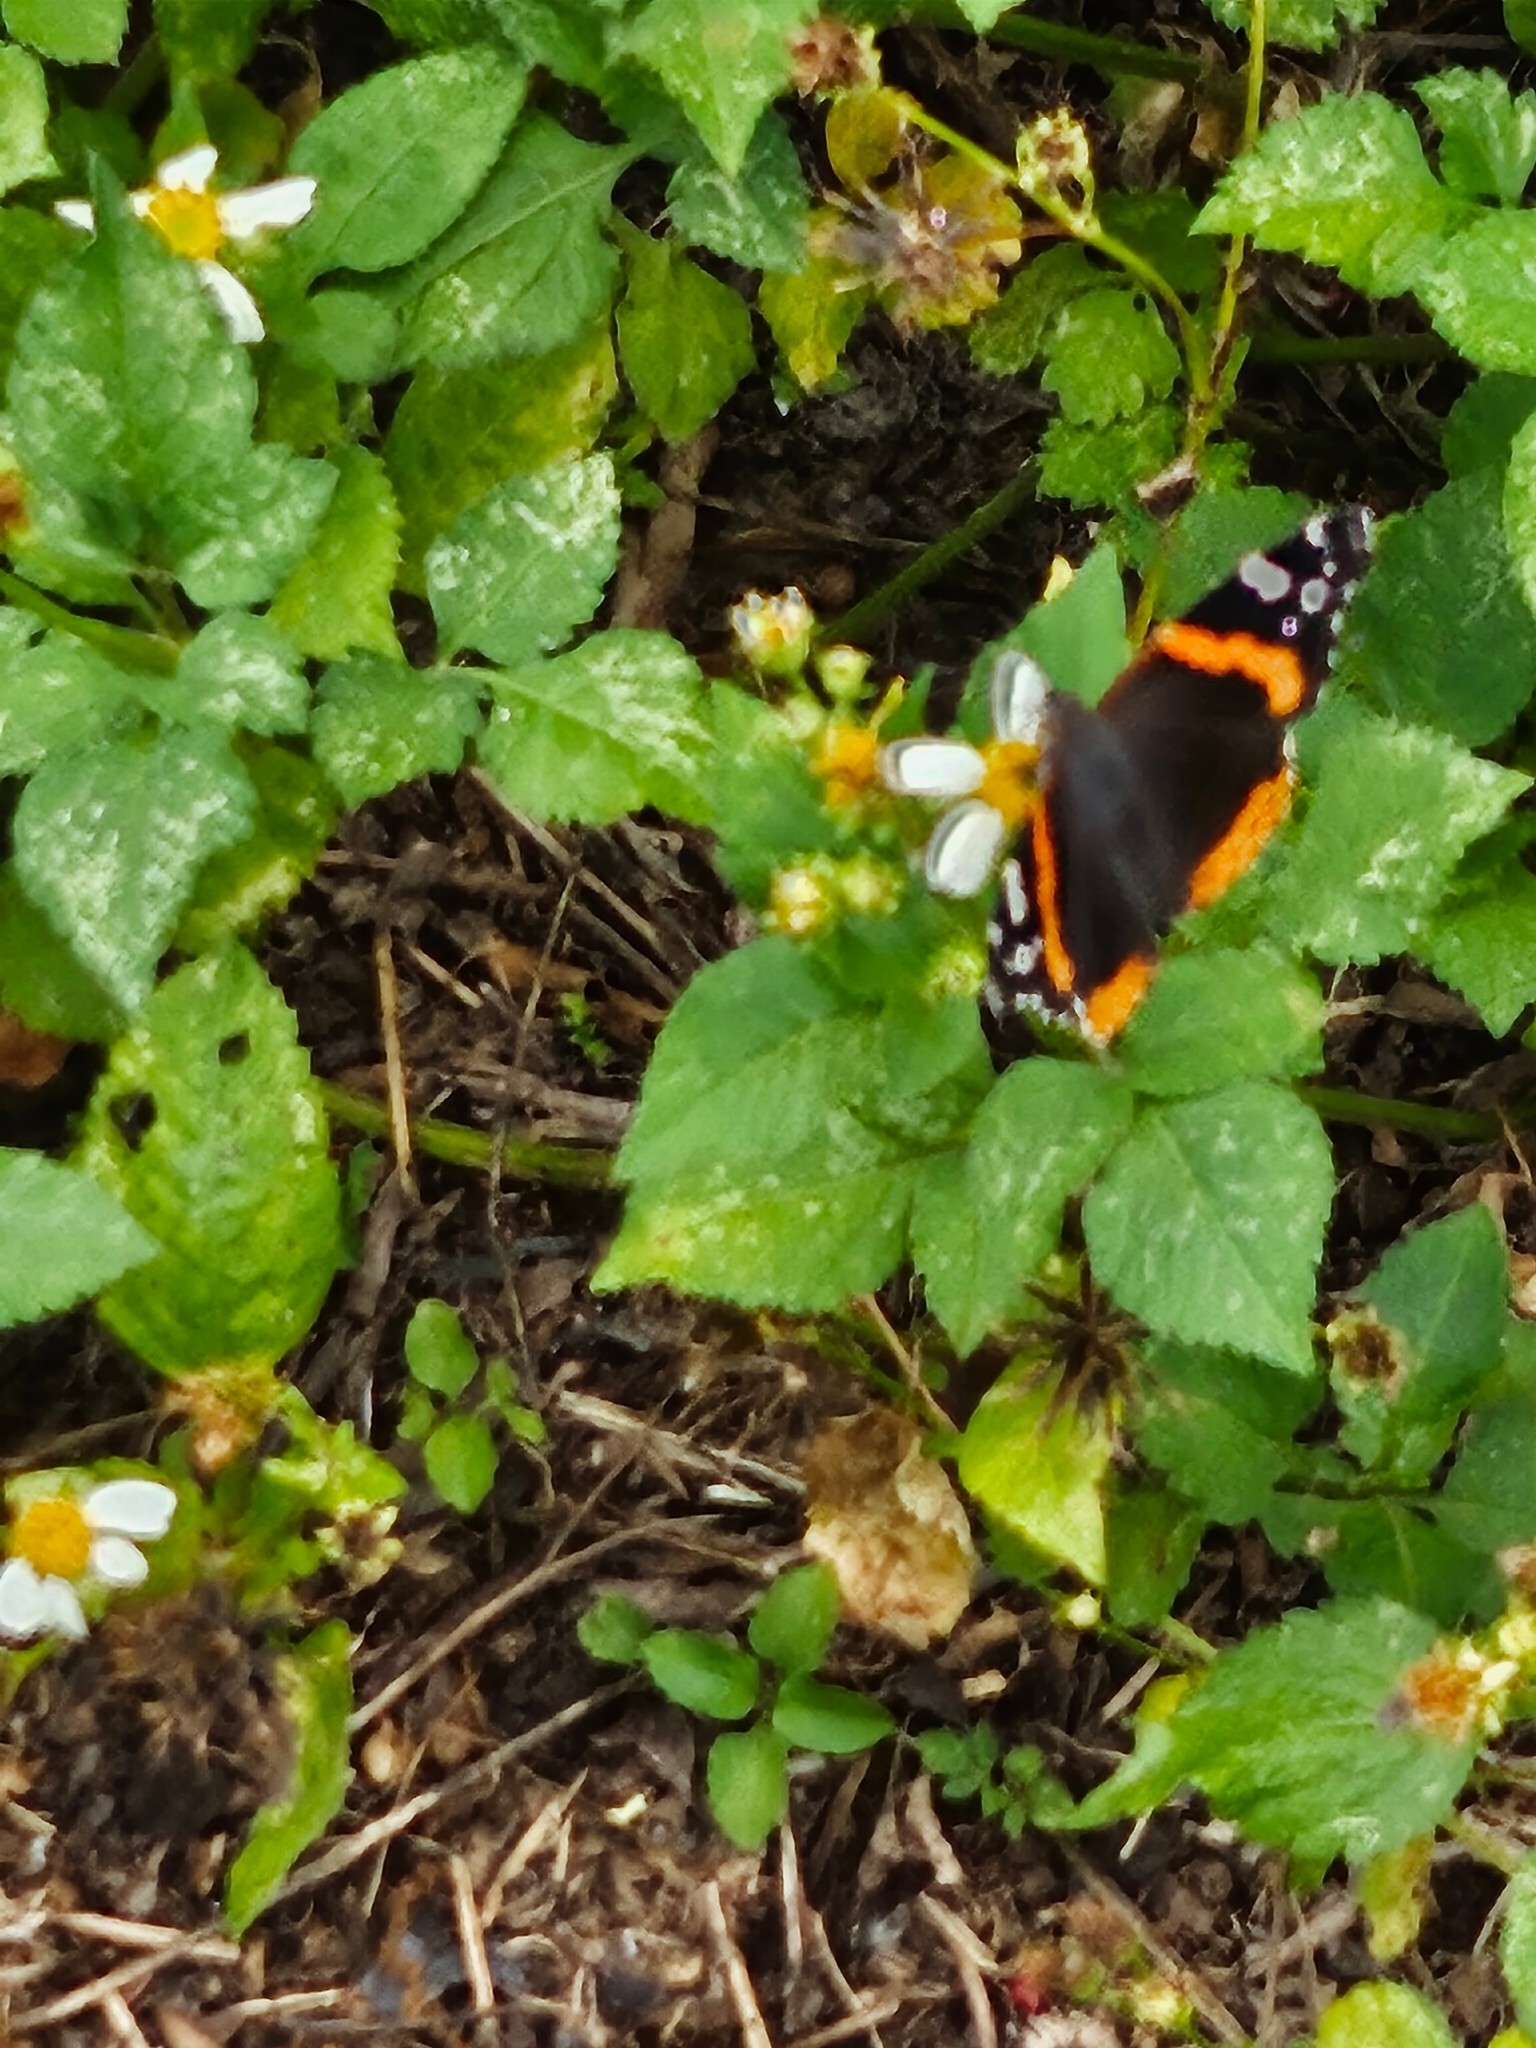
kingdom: Animalia
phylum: Arthropoda
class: Insecta
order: Lepidoptera
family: Nymphalidae
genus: Vanessa
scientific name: Vanessa atalanta
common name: Red admiral
